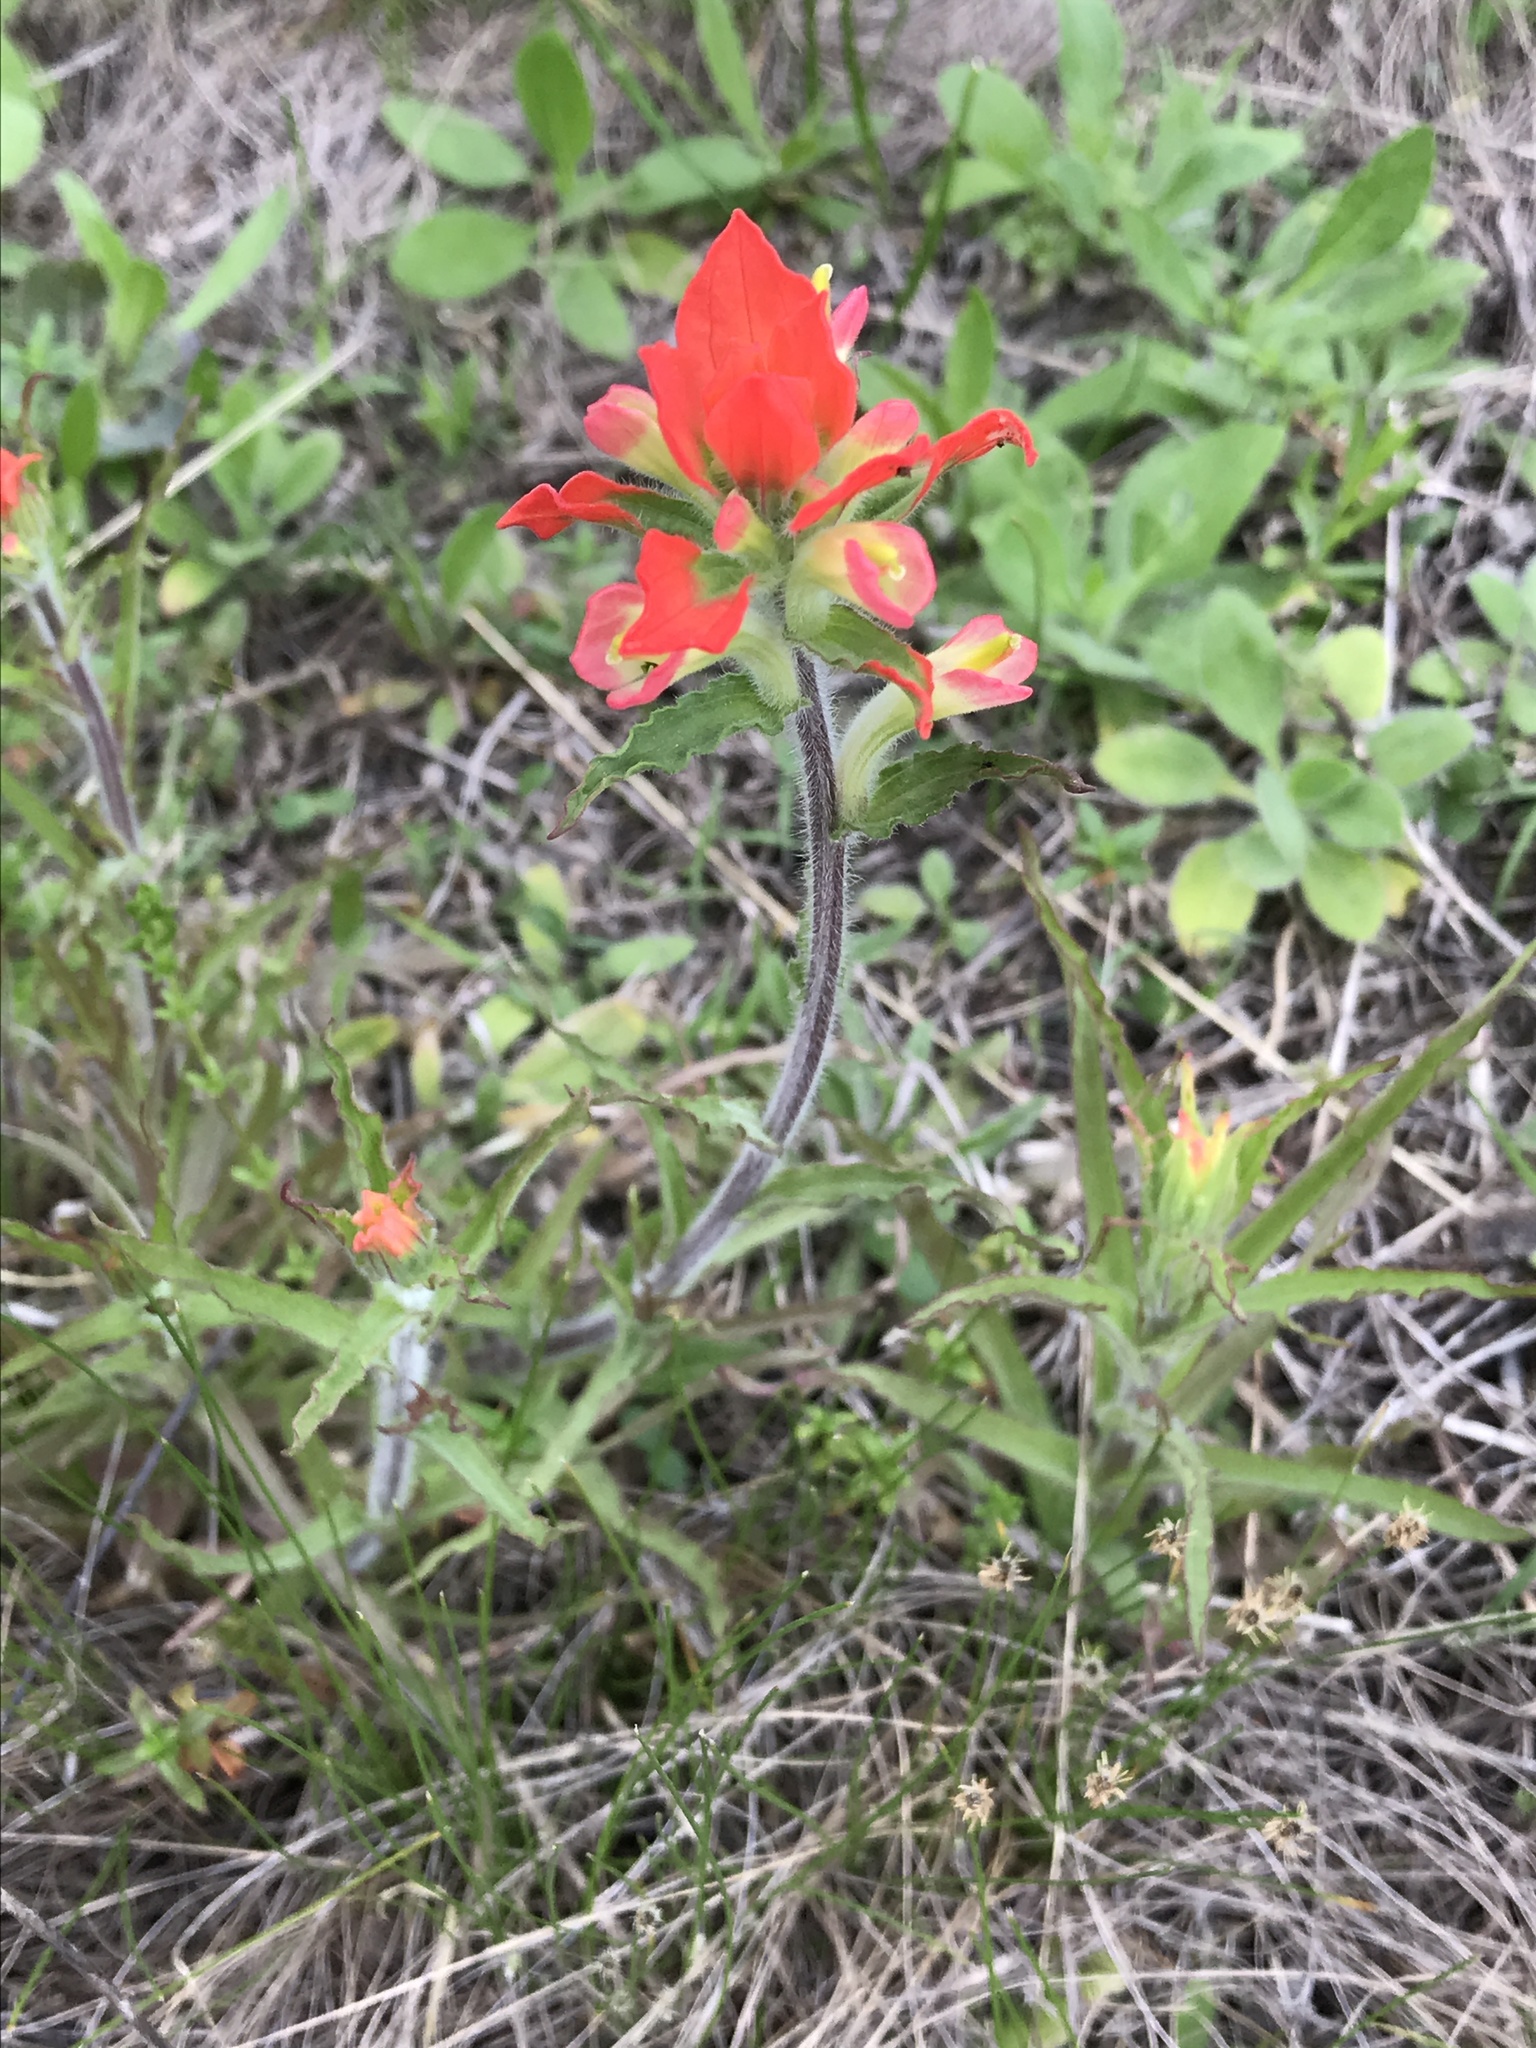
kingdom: Plantae
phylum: Tracheophyta
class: Magnoliopsida
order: Lamiales
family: Orobanchaceae
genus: Castilleja
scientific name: Castilleja indivisa
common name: Texas paintbrush
